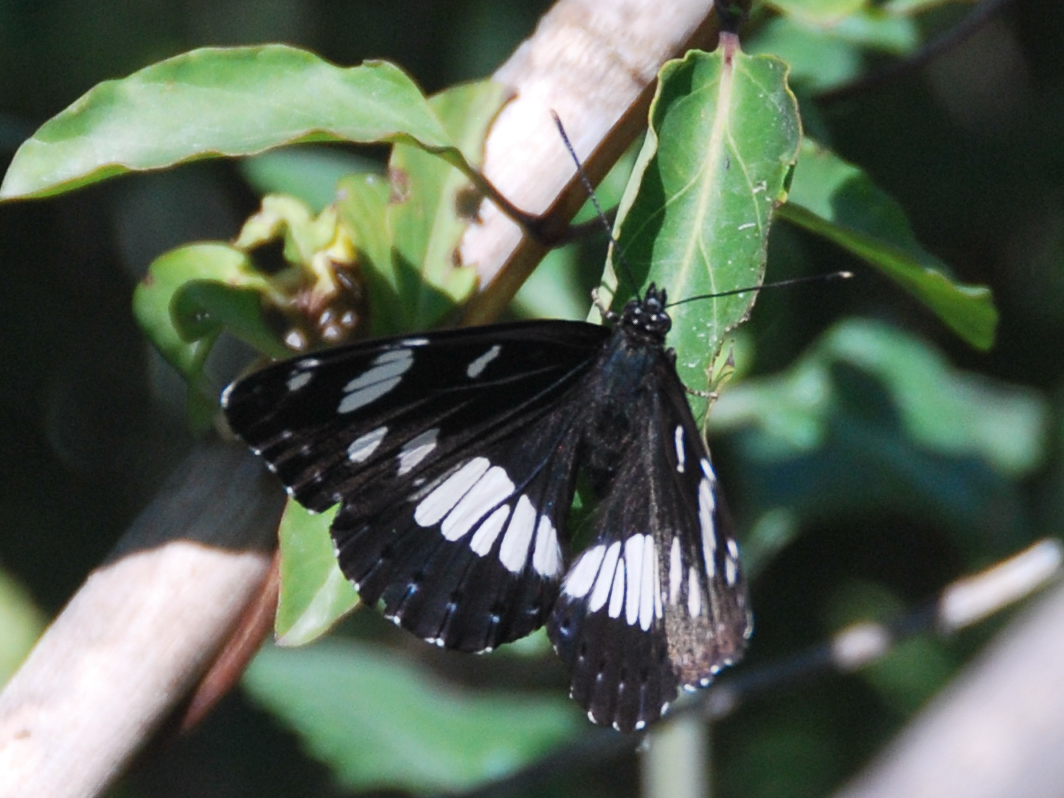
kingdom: Animalia
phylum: Arthropoda
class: Insecta
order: Lepidoptera
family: Nymphalidae
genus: Limenitis
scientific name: Limenitis reducta
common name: Southern white admiral
